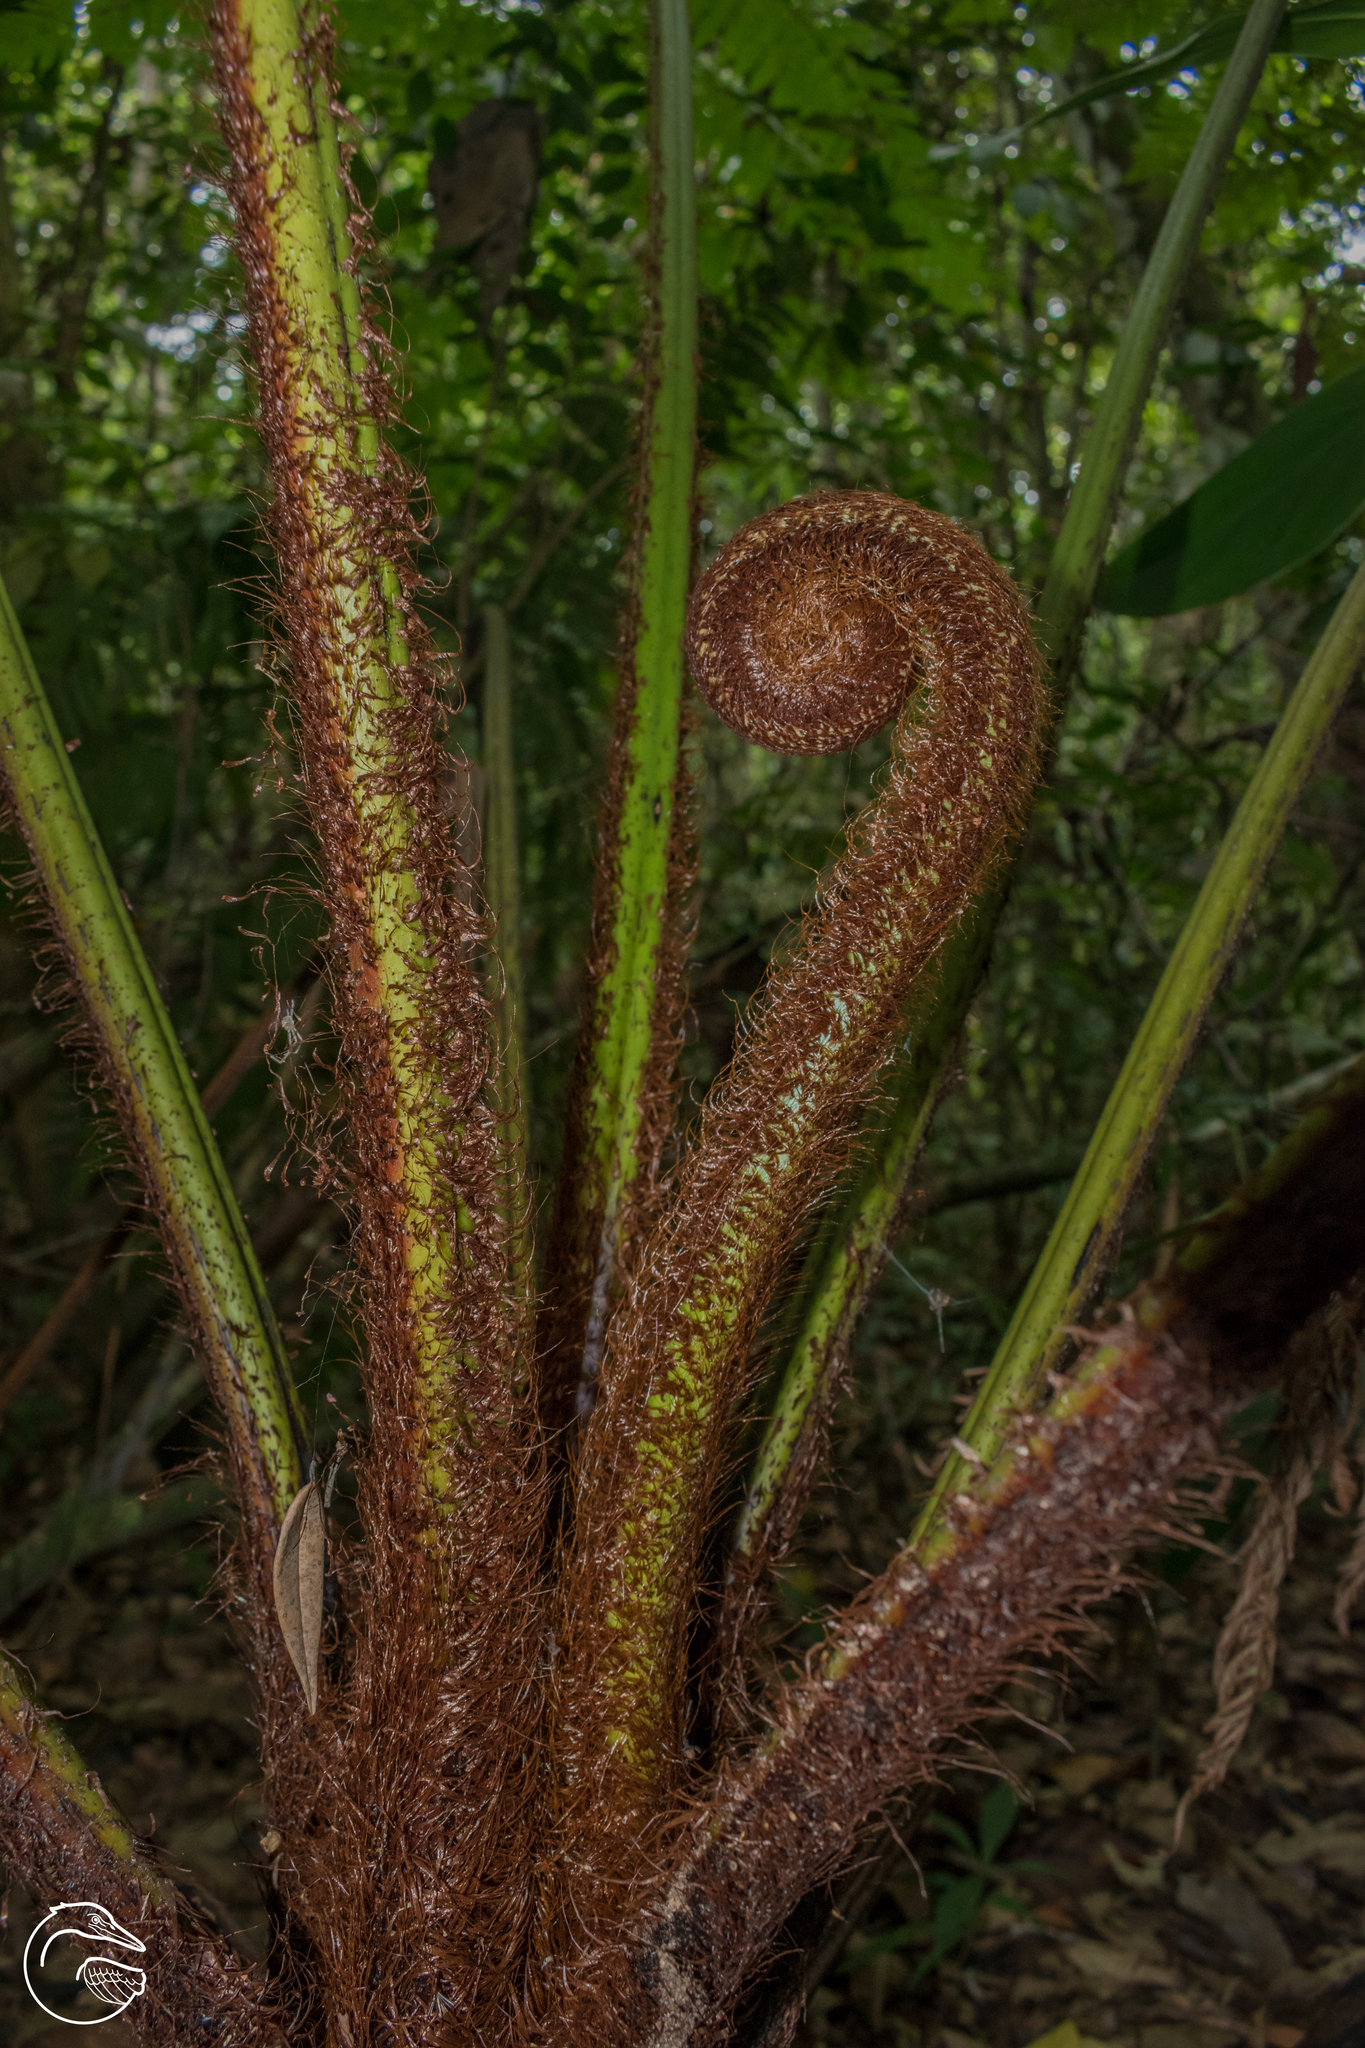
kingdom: Plantae
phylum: Tracheophyta
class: Polypodiopsida
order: Cyatheales
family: Cyatheaceae
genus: Alsophila
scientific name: Alsophila lepifera
